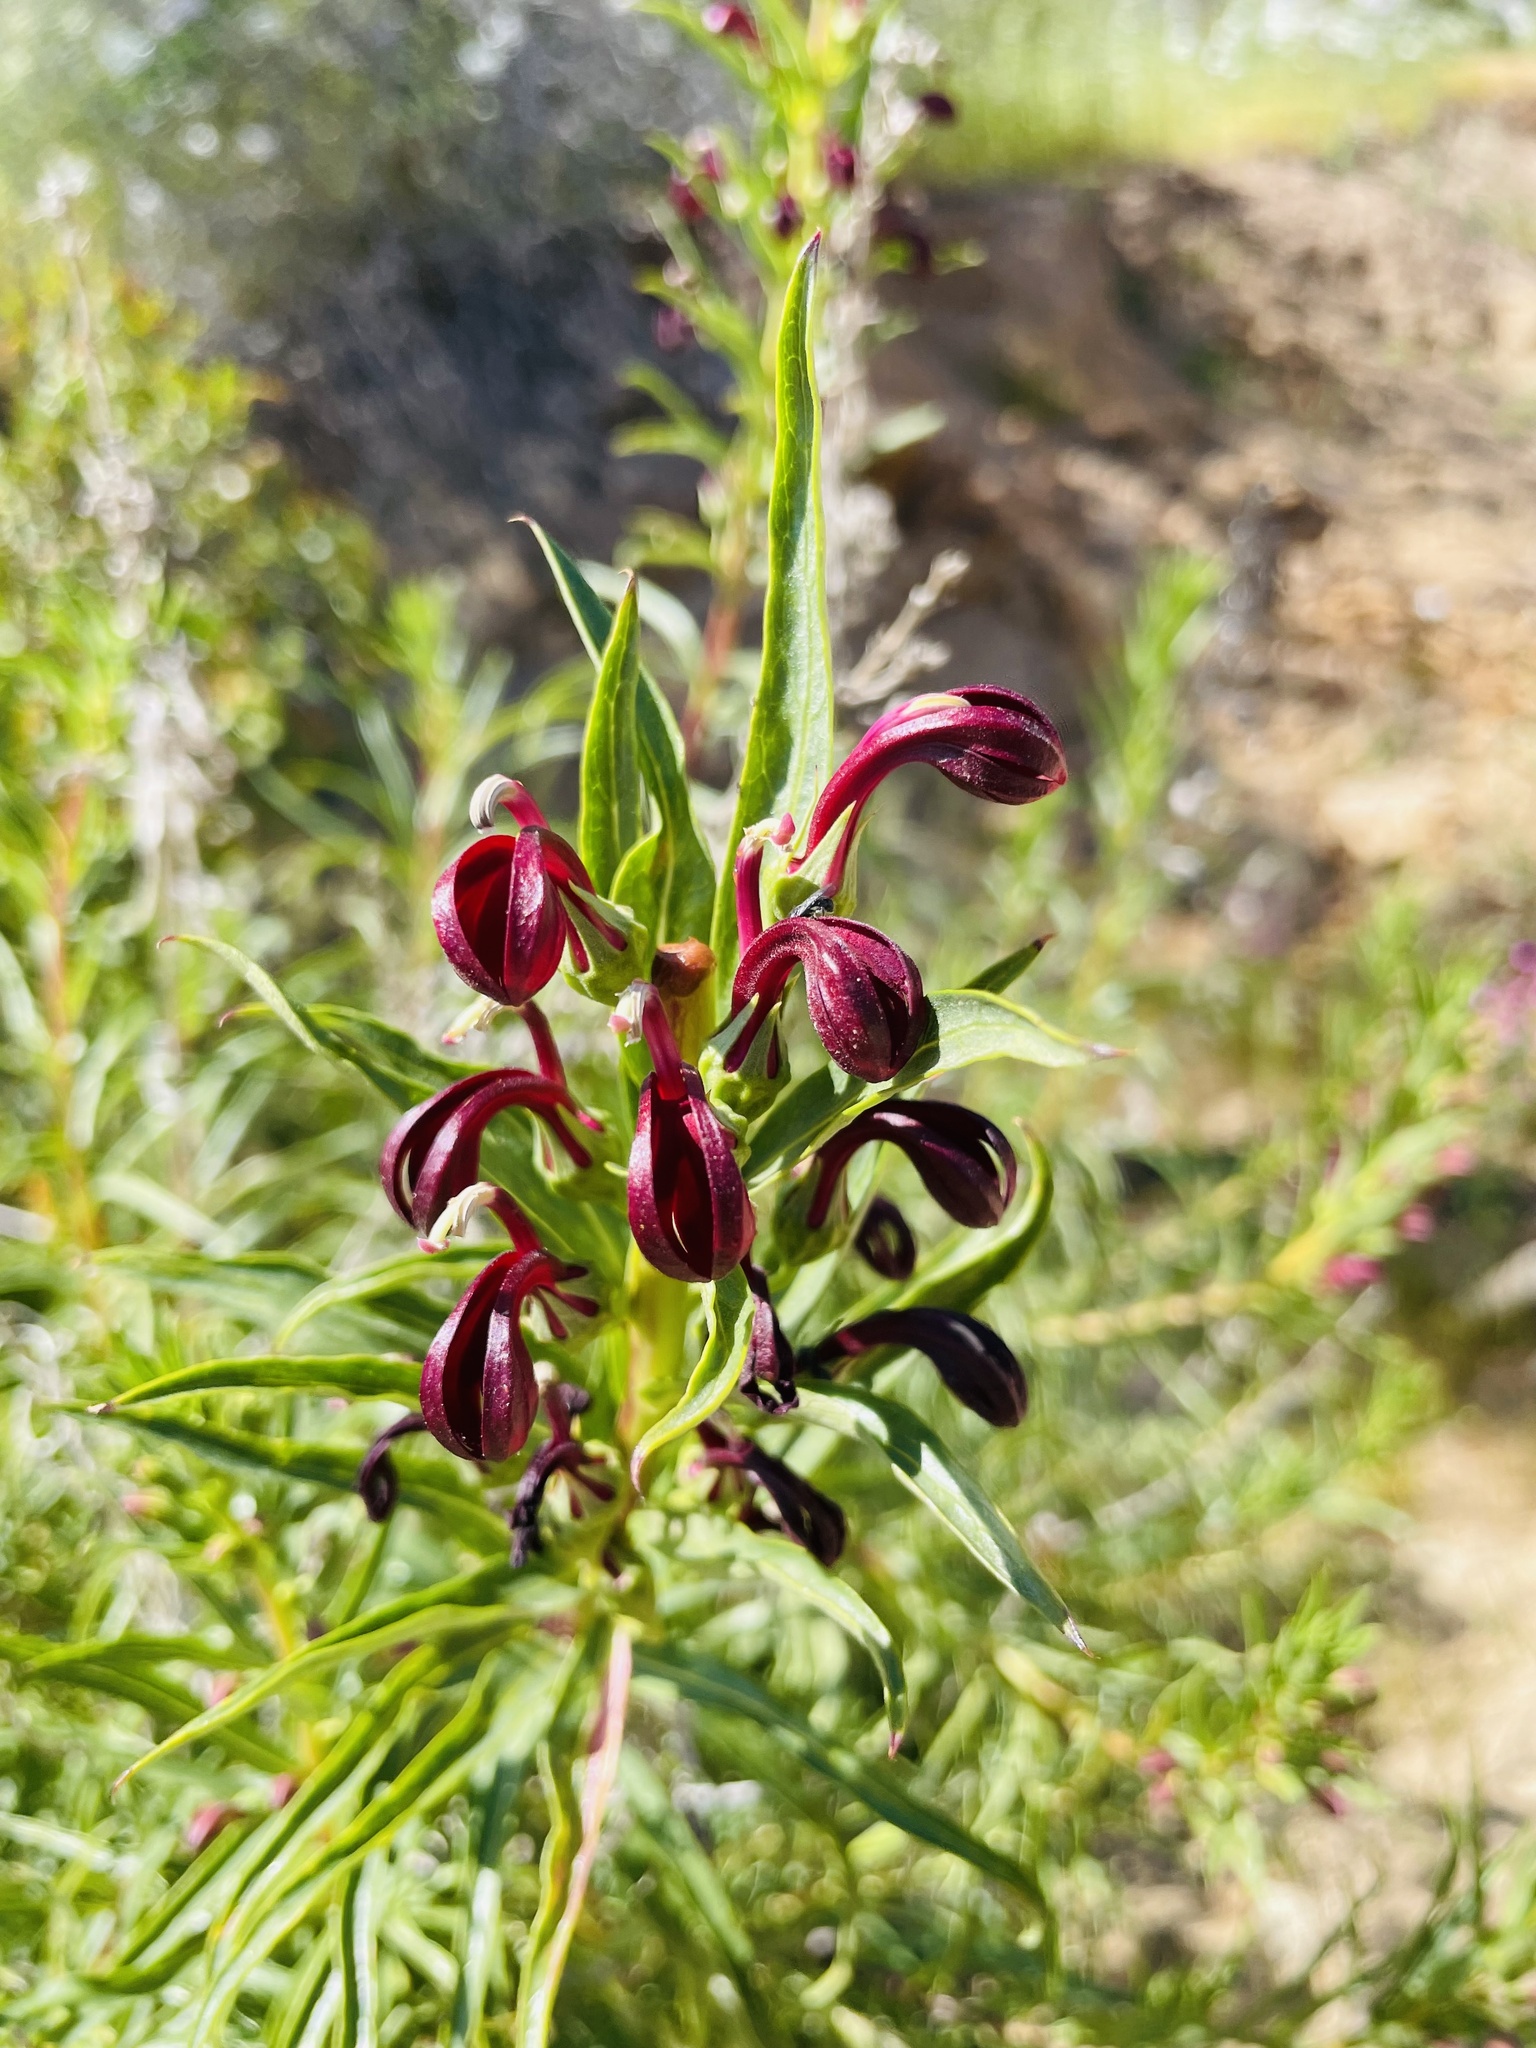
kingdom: Plantae
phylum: Tracheophyta
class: Magnoliopsida
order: Asterales
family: Campanulaceae
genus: Lobelia
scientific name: Lobelia polyphylla
